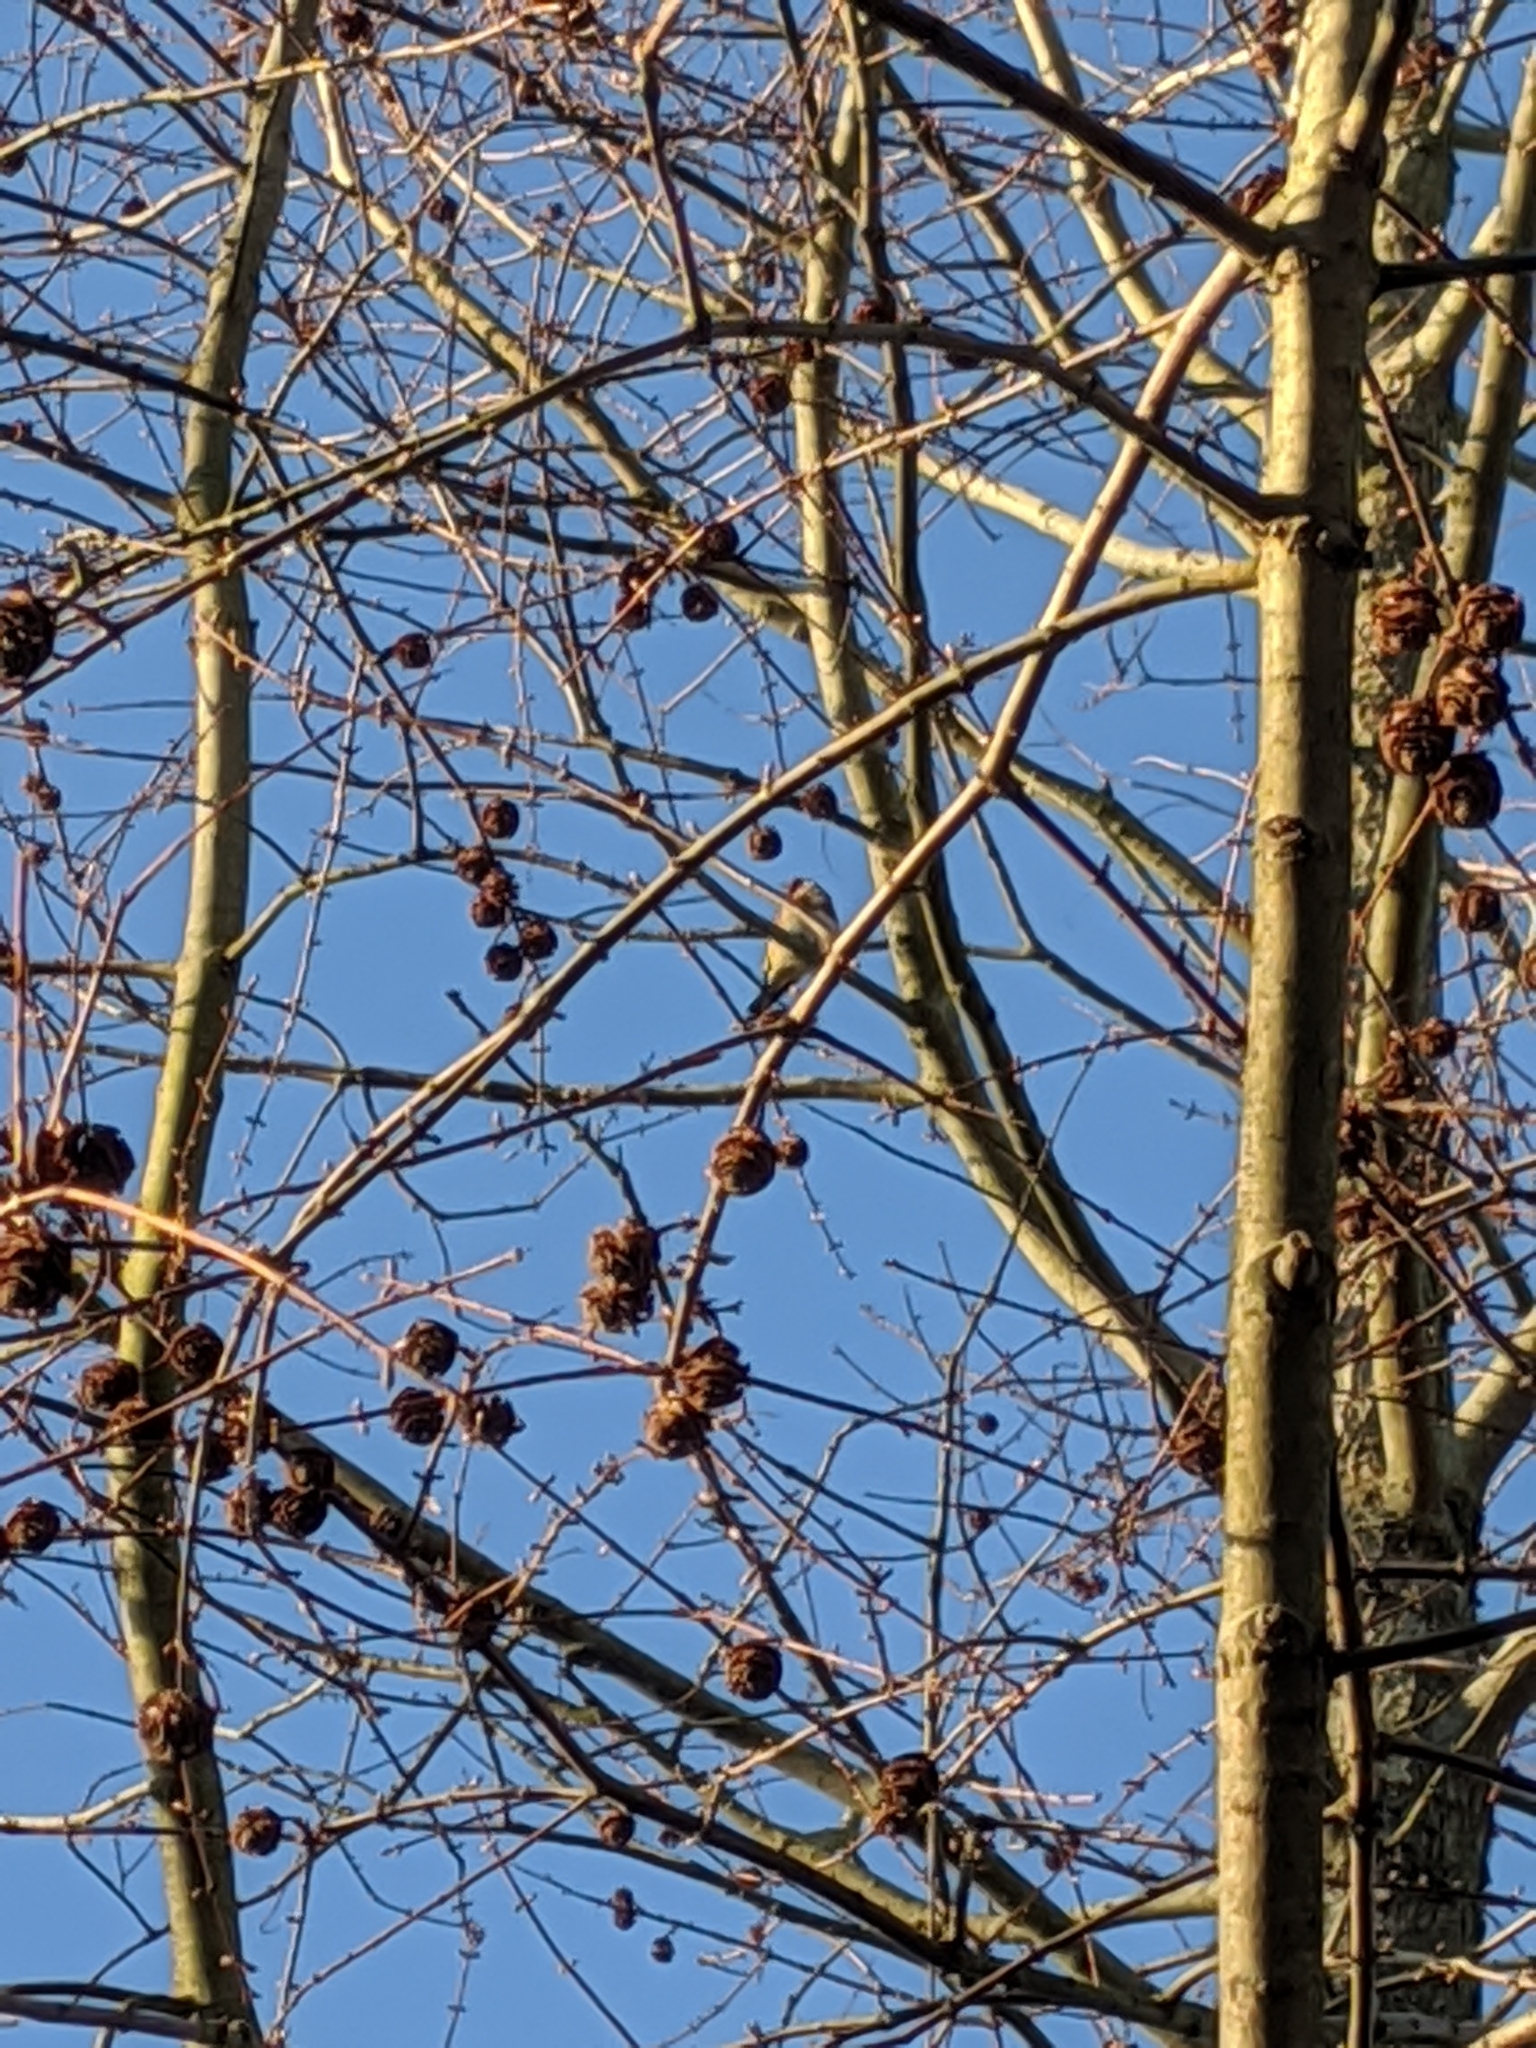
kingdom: Animalia
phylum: Chordata
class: Aves
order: Passeriformes
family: Fringillidae
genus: Carduelis
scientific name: Carduelis carduelis
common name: European goldfinch
